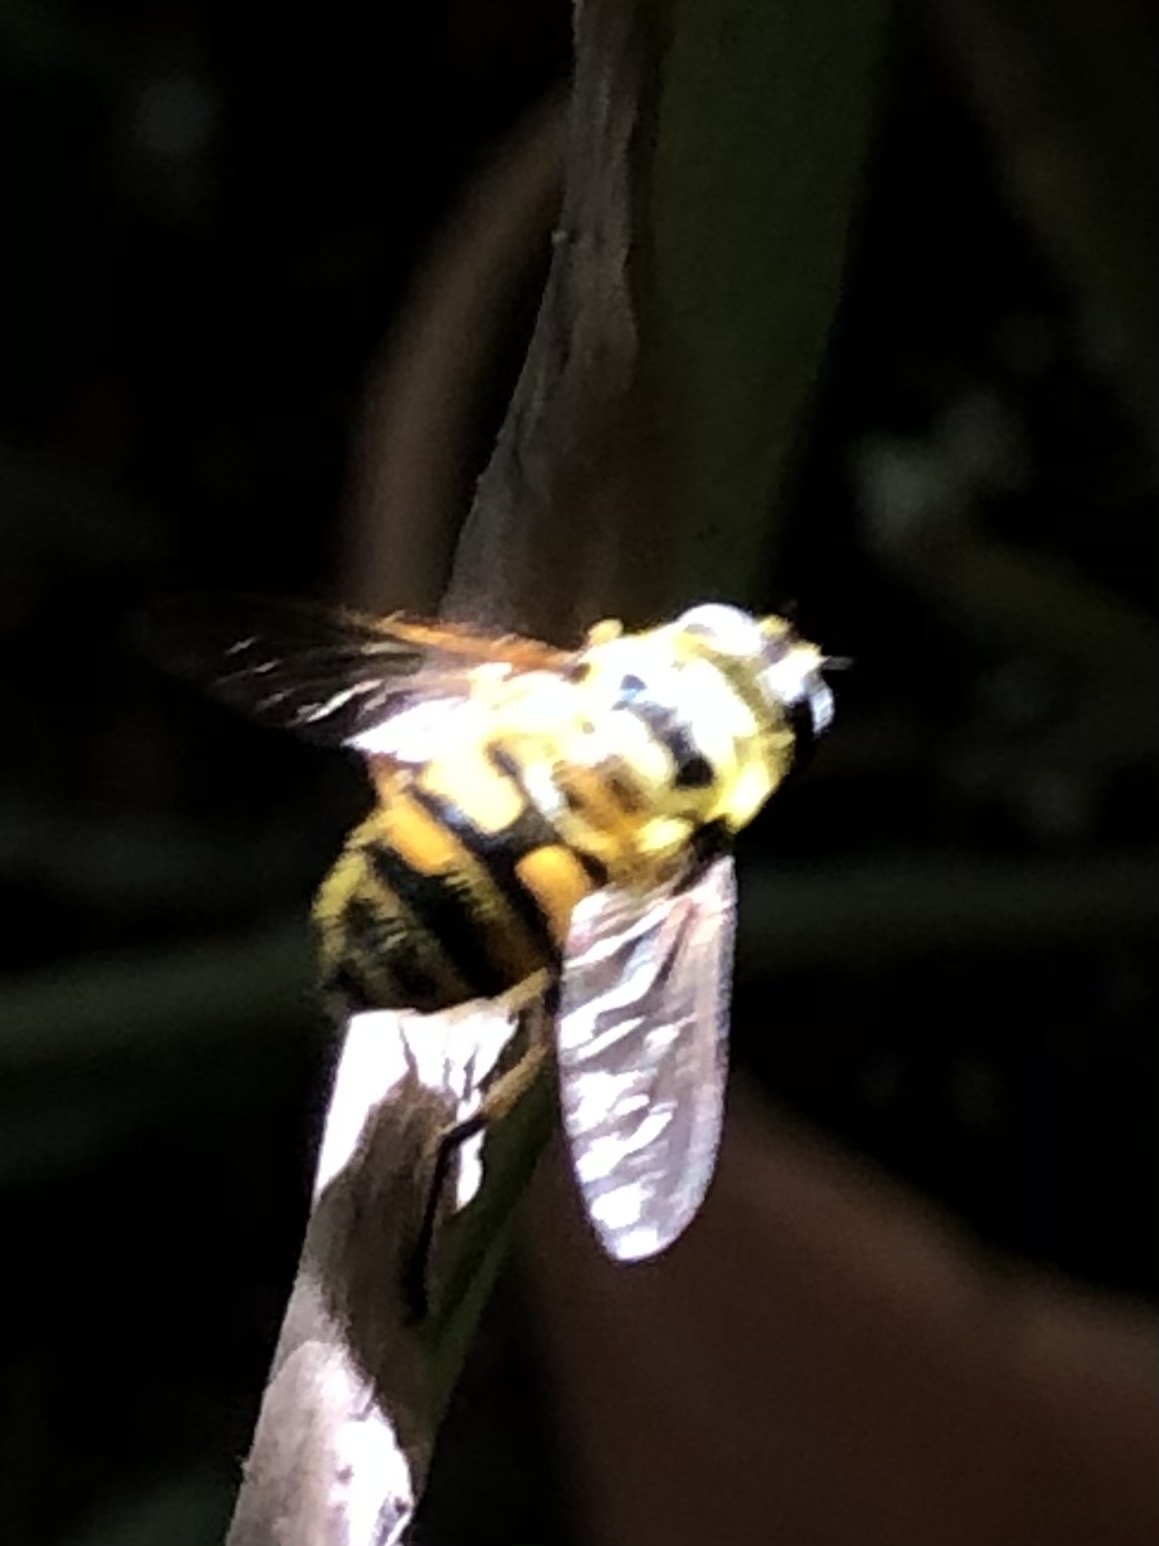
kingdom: Animalia
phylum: Arthropoda
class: Insecta
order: Diptera
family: Syrphidae
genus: Myathropa
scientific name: Myathropa florea
